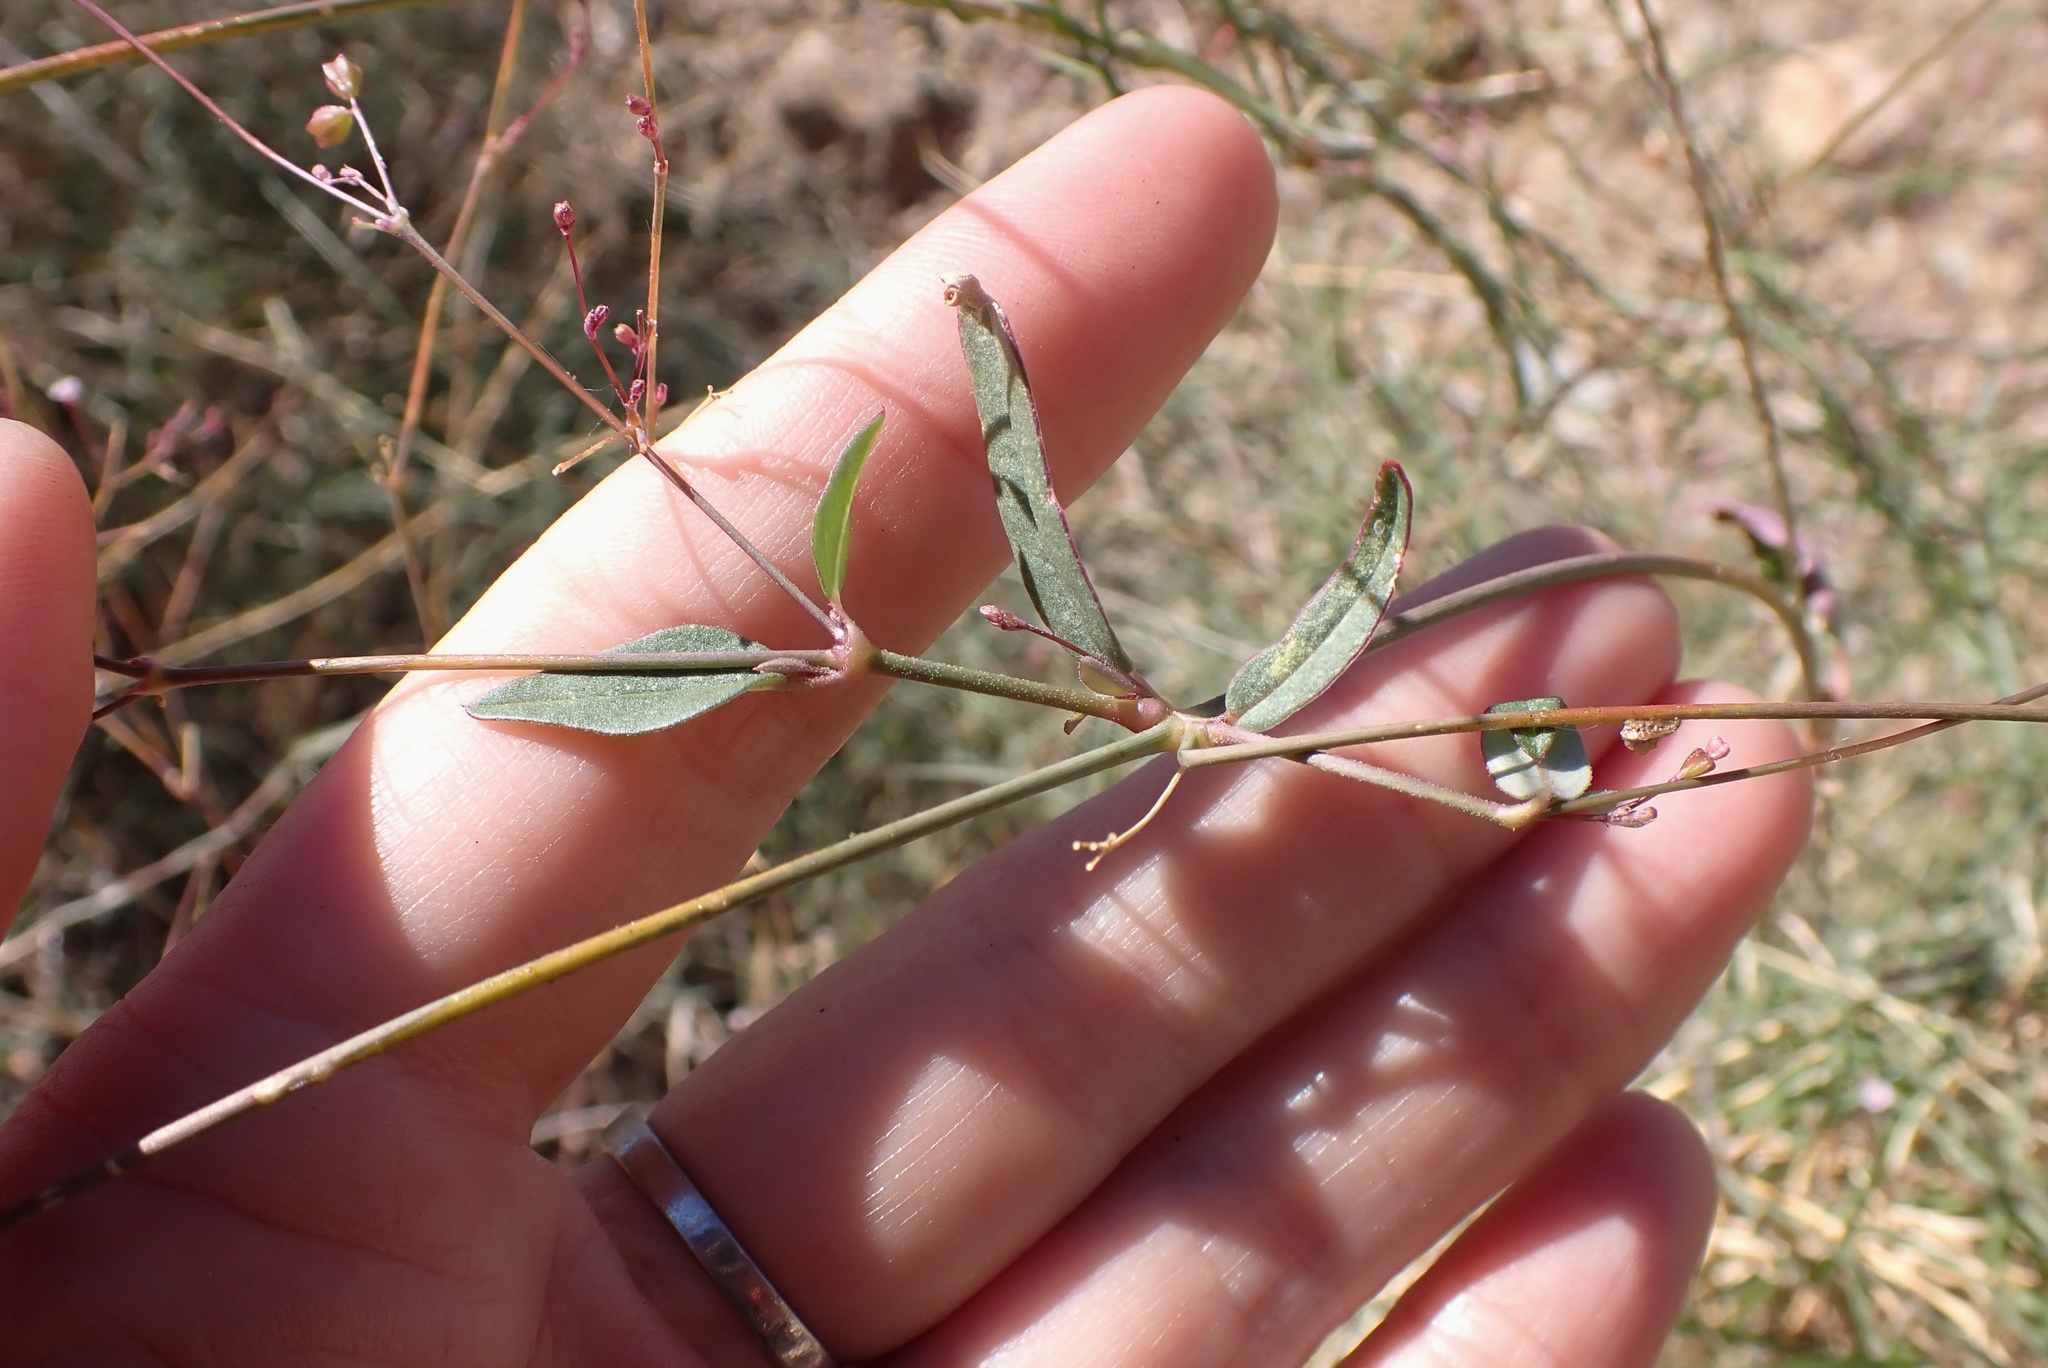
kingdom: Plantae
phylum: Tracheophyta
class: Magnoliopsida
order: Caryophyllales
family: Nyctaginaceae
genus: Boerhavia
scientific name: Boerhavia triquetra
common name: Creeping sticky-stem
